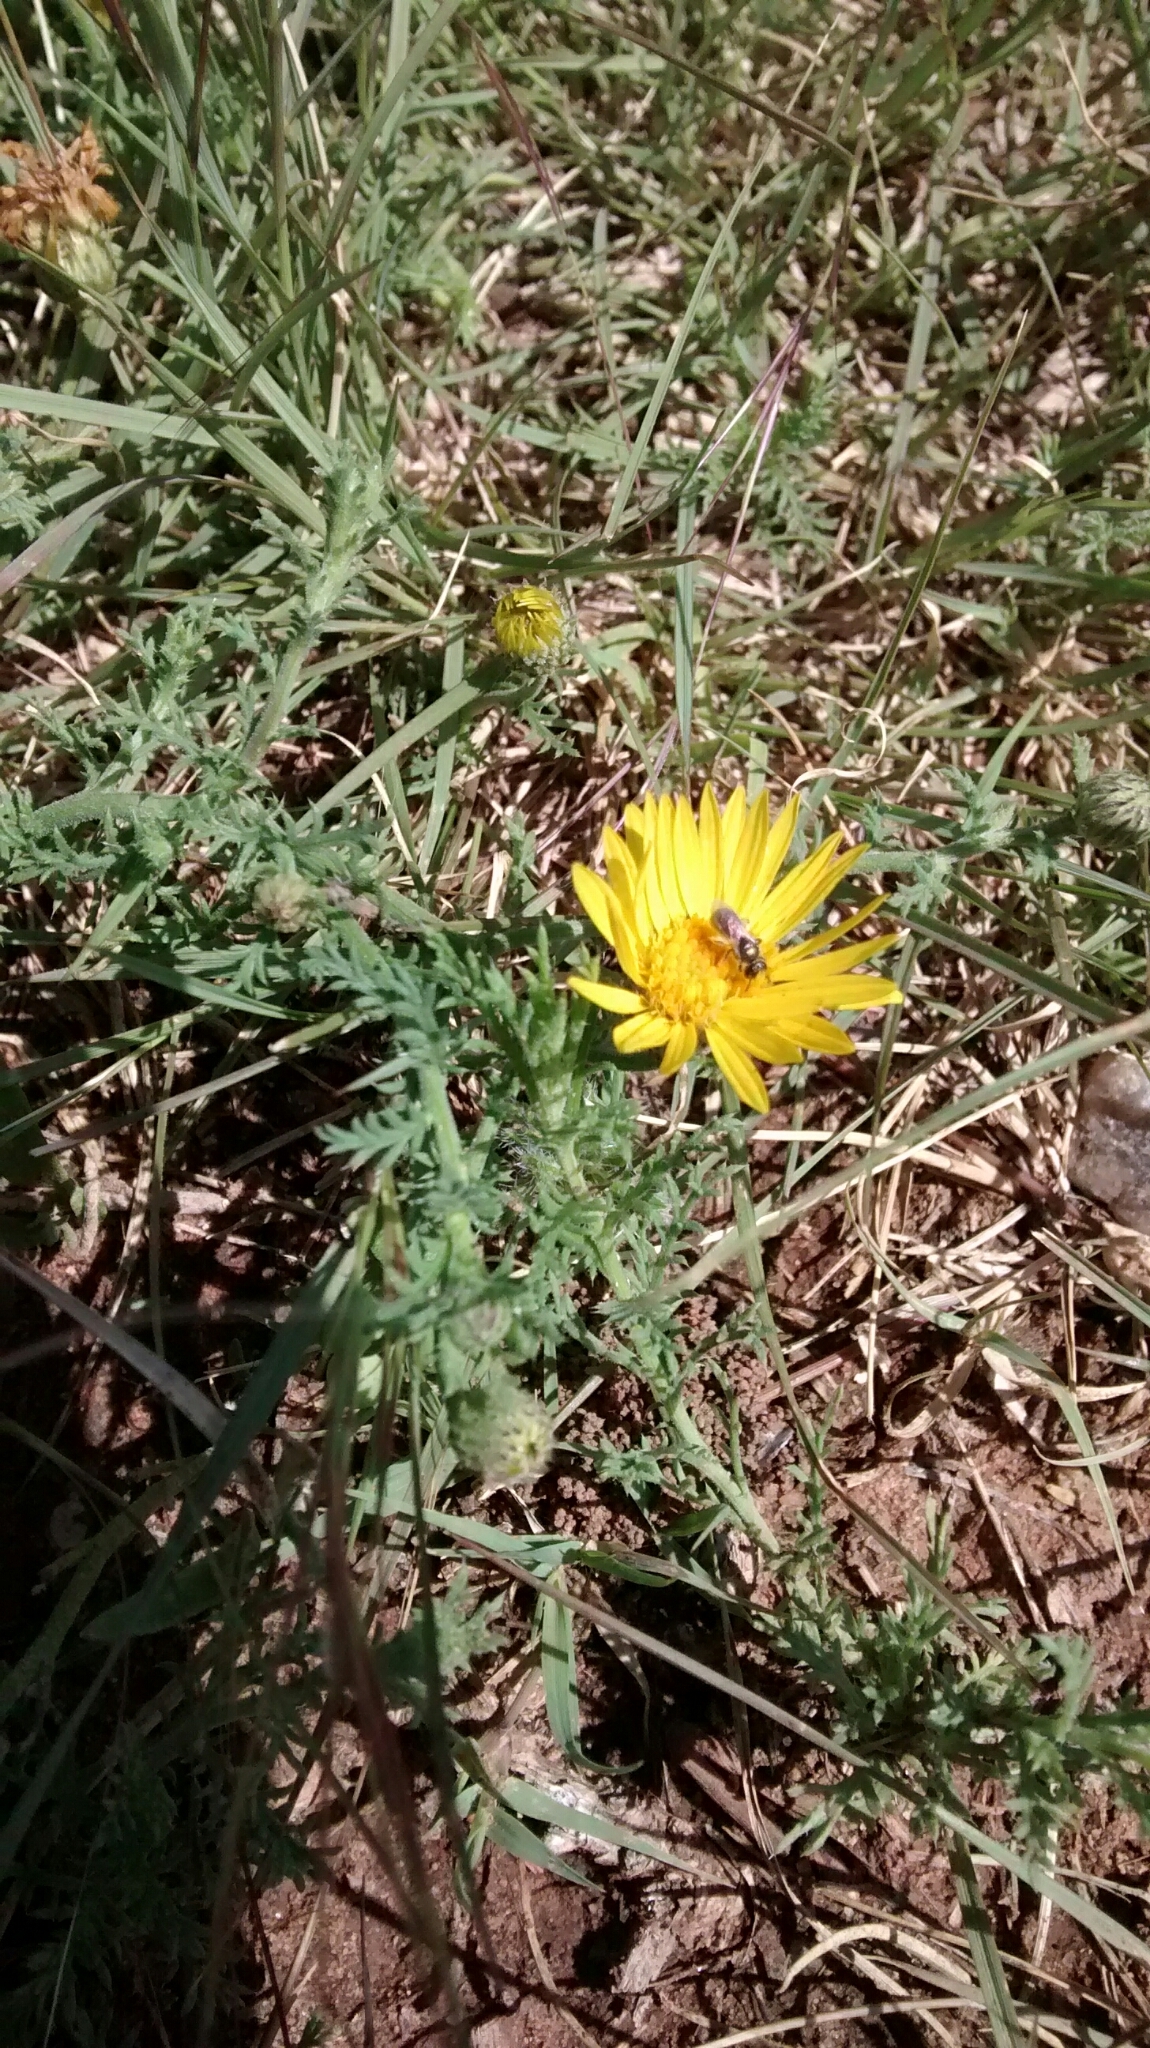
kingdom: Plantae
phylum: Tracheophyta
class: Magnoliopsida
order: Asterales
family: Asteraceae
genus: Xanthisma
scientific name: Xanthisma spinulosum
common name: Spiny goldenweed
